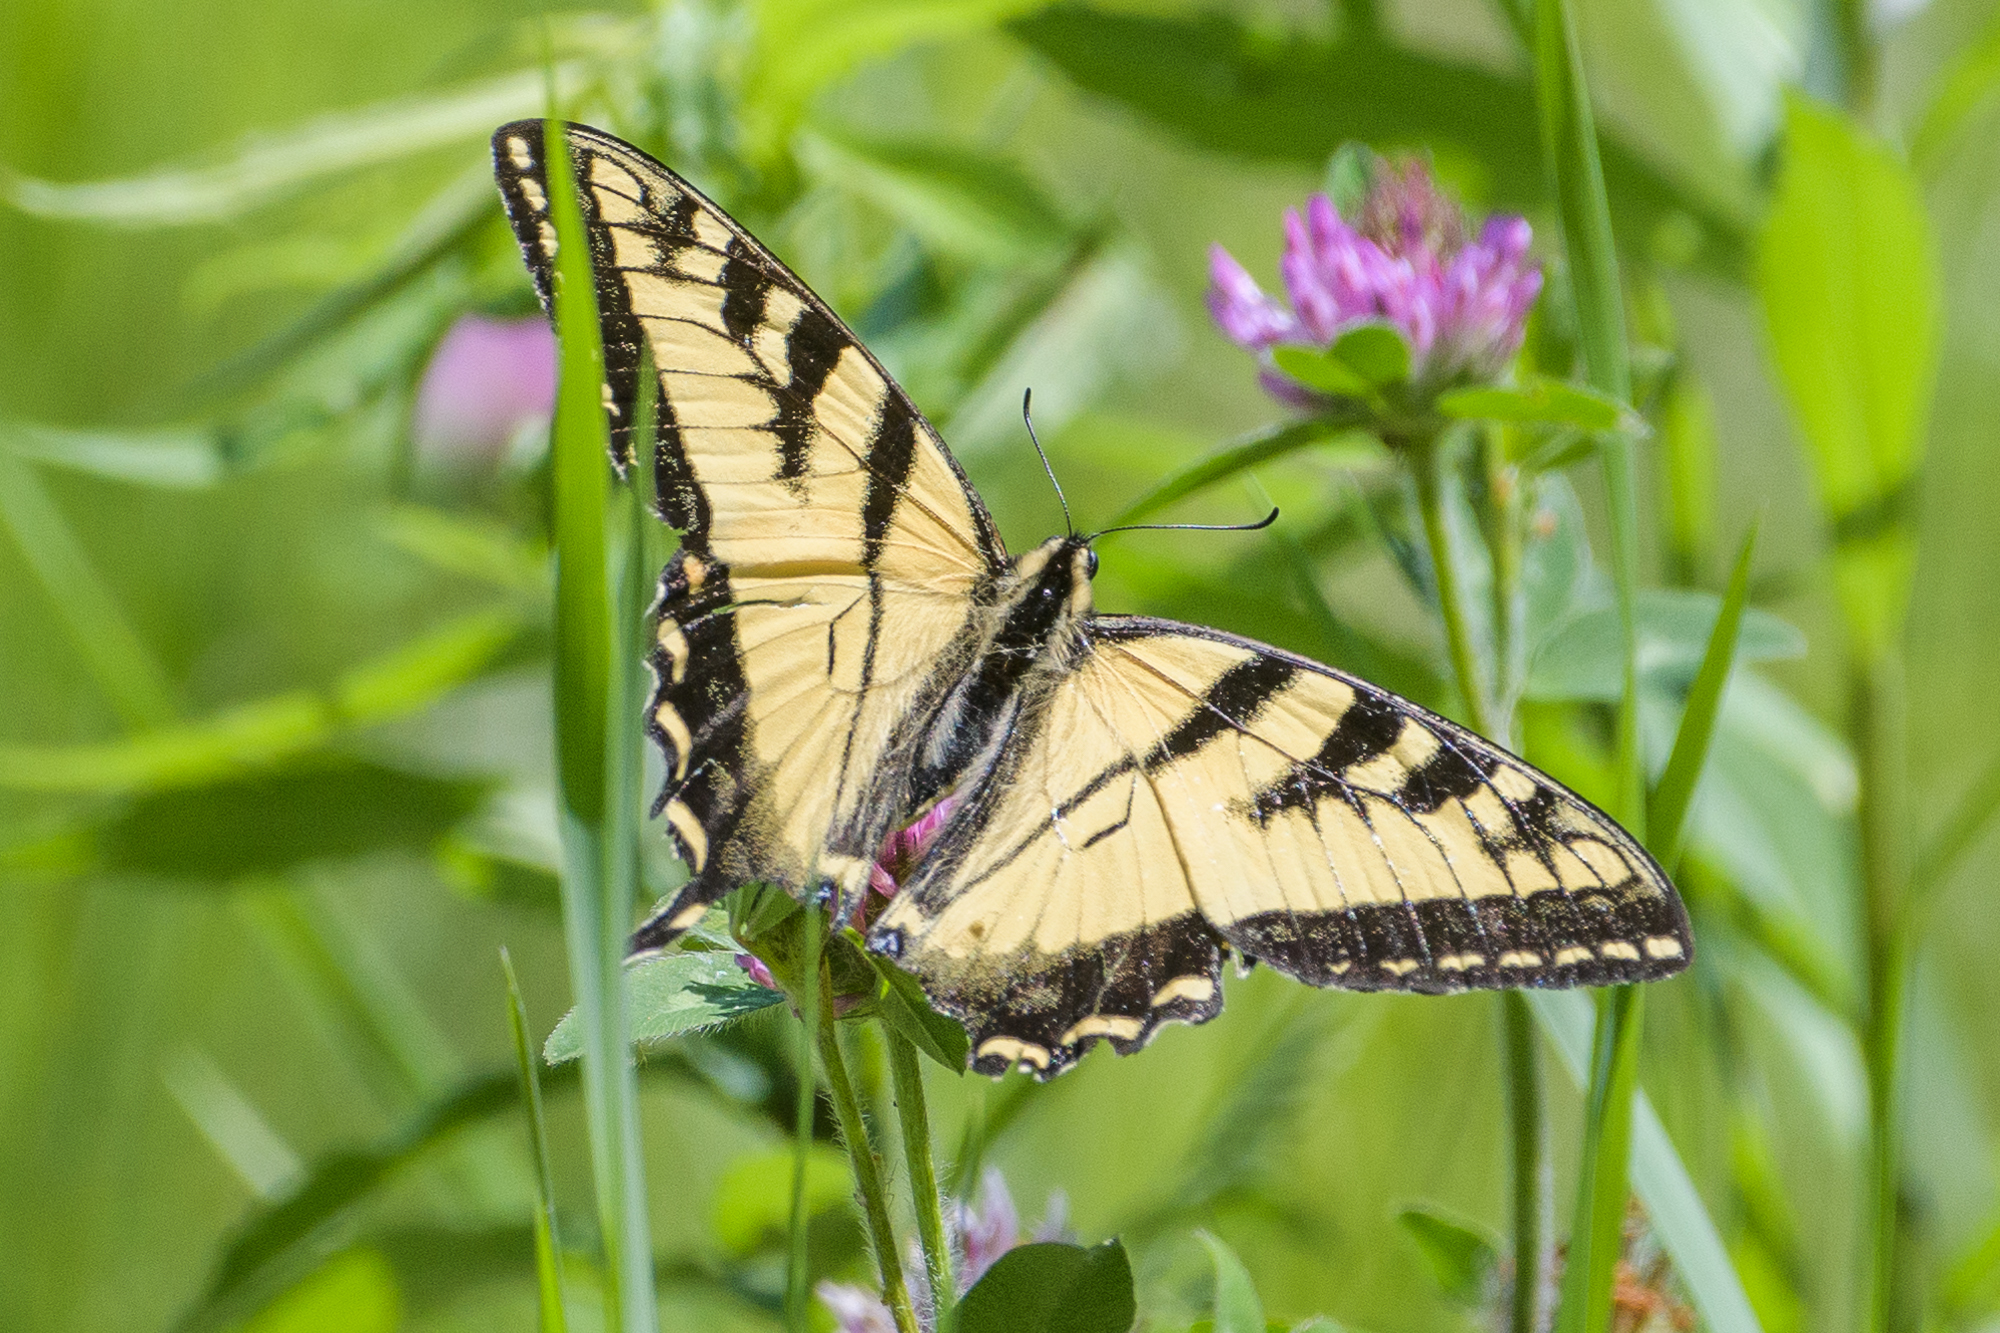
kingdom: Animalia
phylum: Arthropoda
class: Insecta
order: Lepidoptera
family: Papilionidae
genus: Papilio
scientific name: Papilio glaucus
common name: Tiger swallowtail
